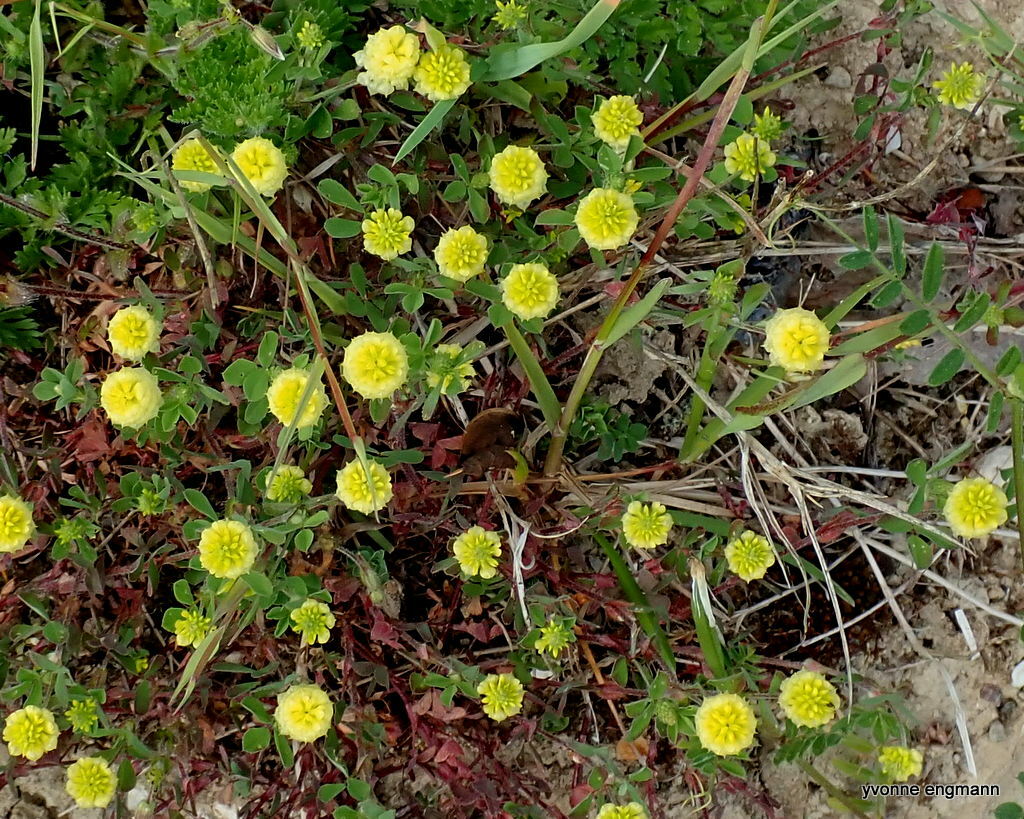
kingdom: Plantae
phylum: Tracheophyta
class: Magnoliopsida
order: Fabales
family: Fabaceae
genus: Trifolium
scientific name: Trifolium campestre
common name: Field clover
